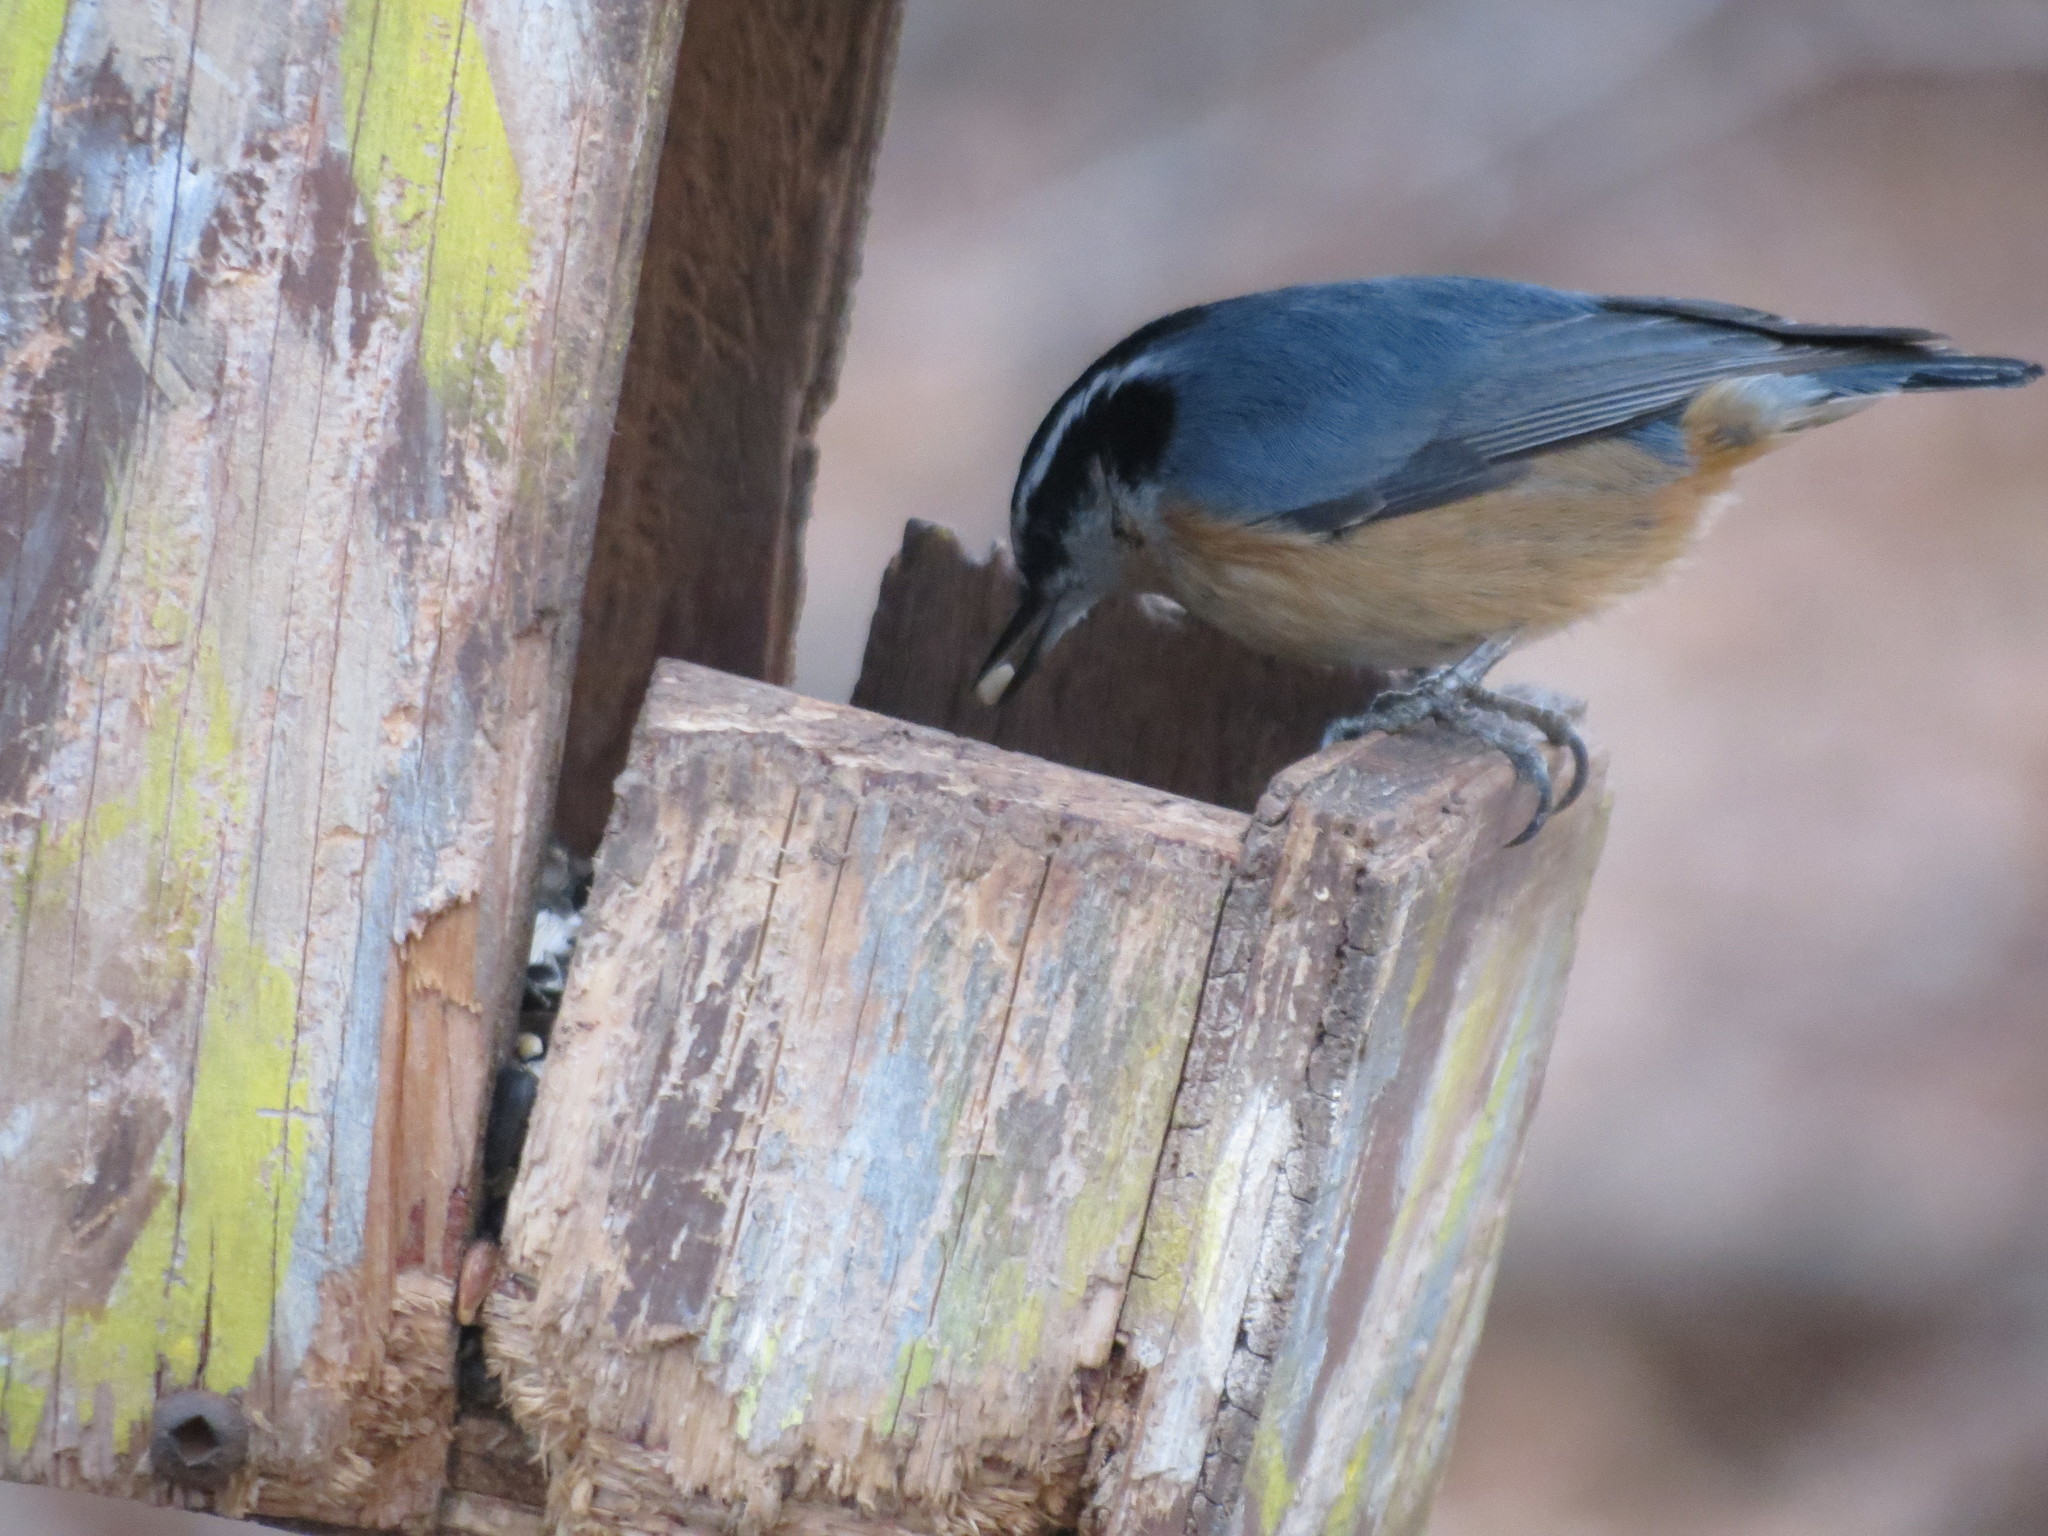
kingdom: Animalia
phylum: Chordata
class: Aves
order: Passeriformes
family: Sittidae
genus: Sitta
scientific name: Sitta canadensis
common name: Red-breasted nuthatch
